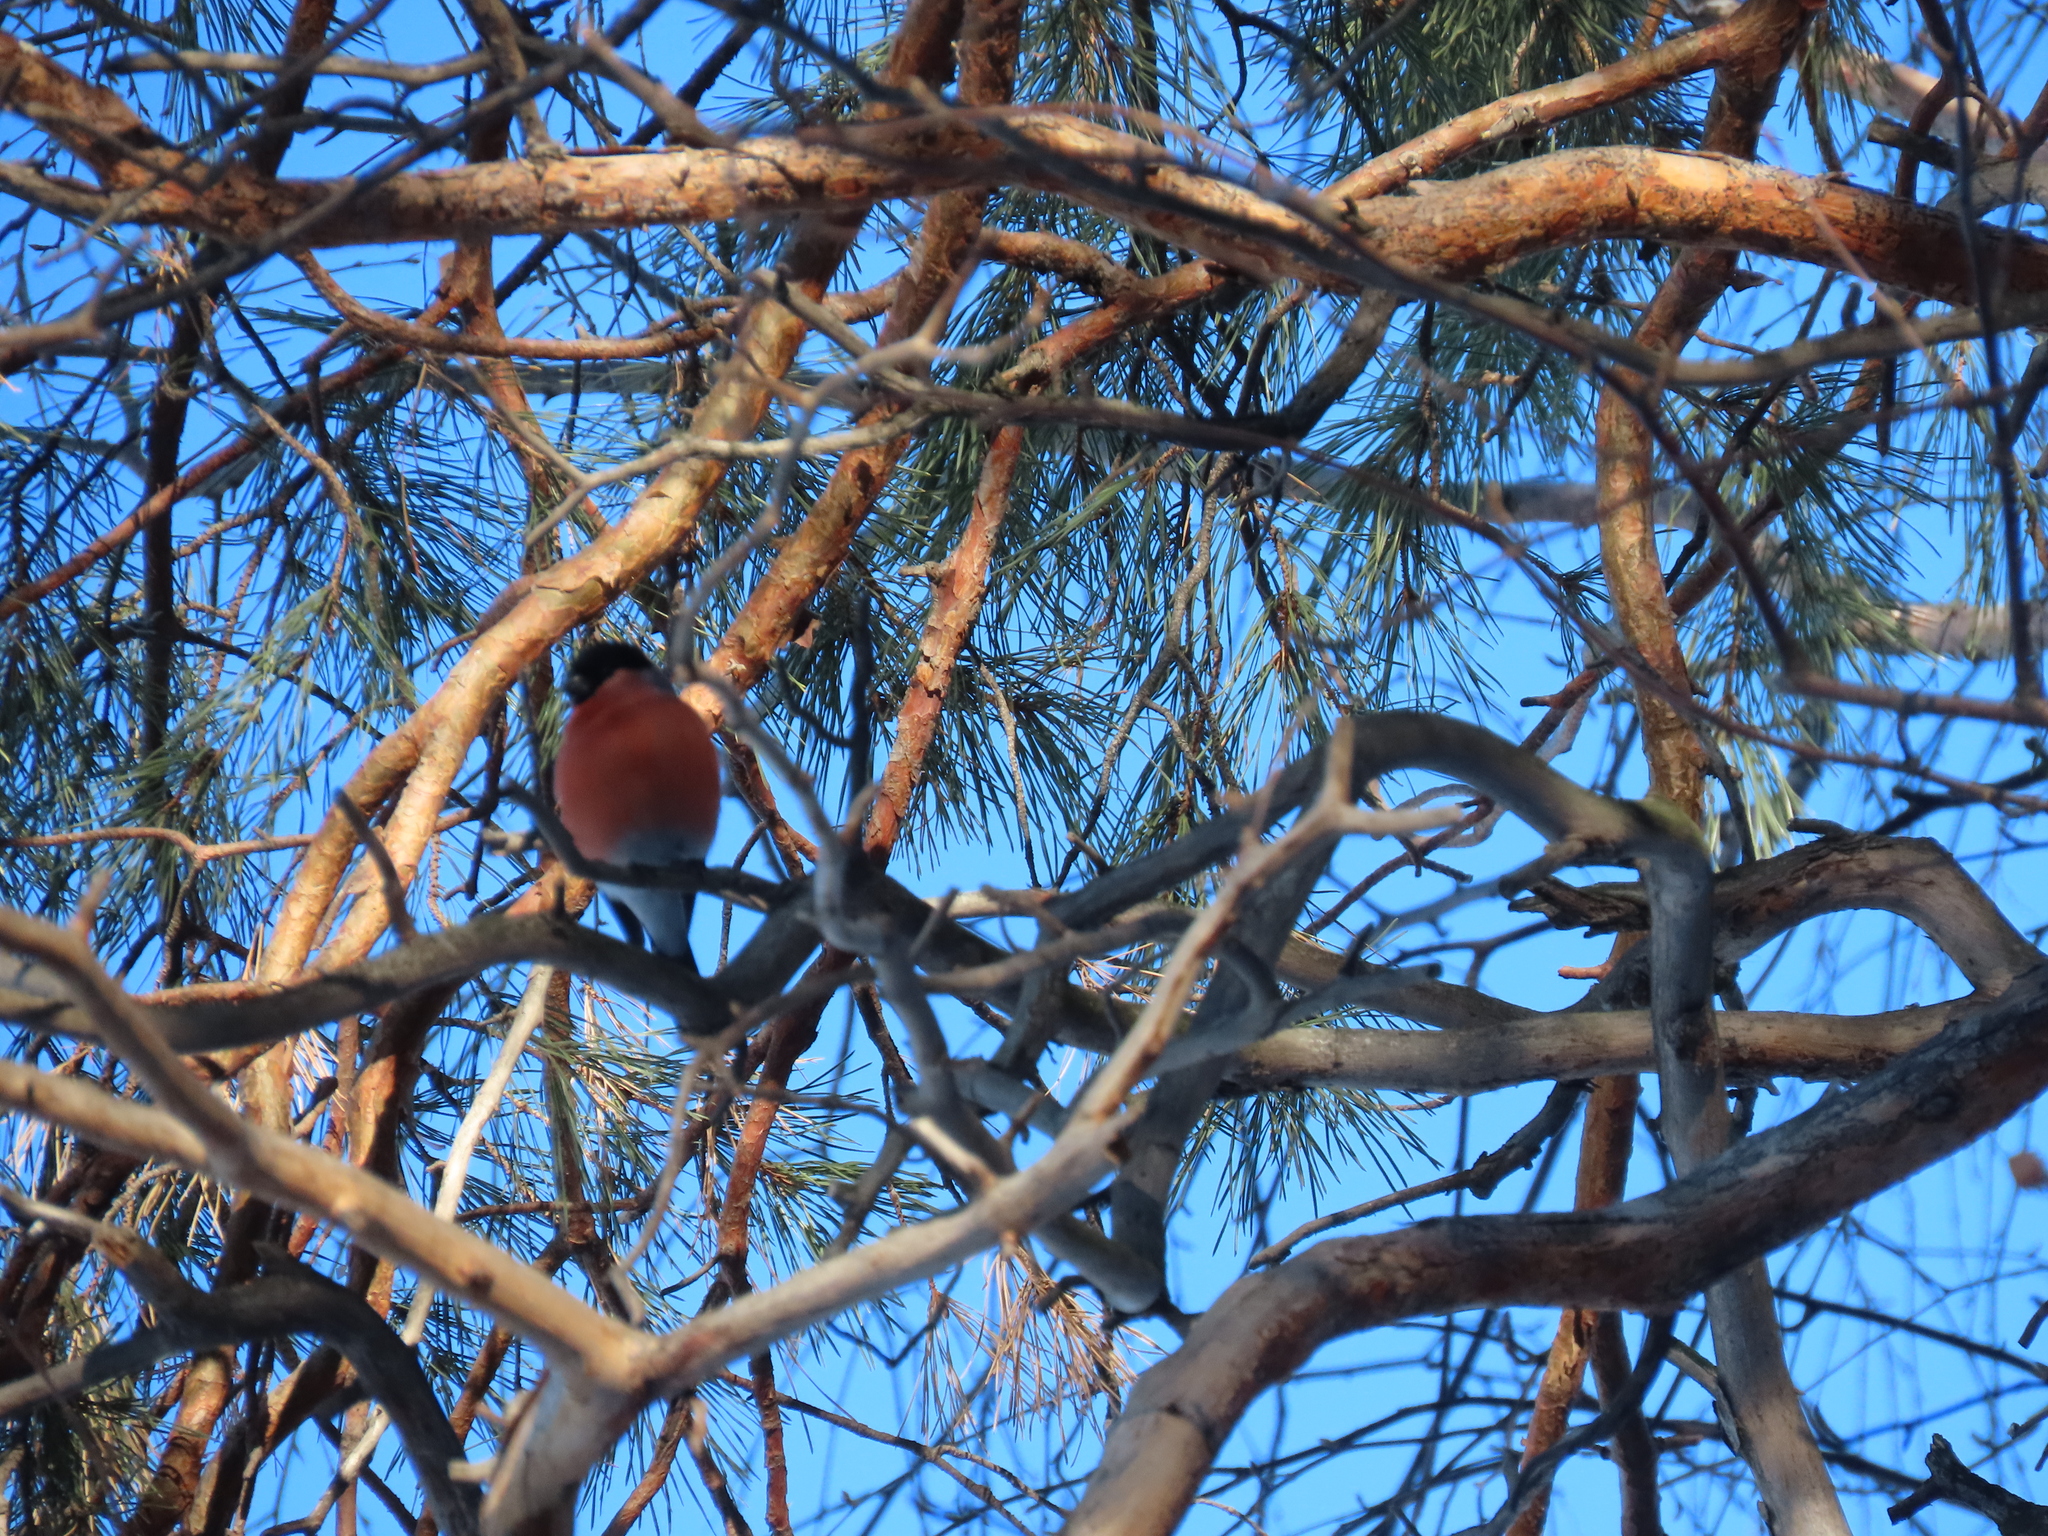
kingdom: Animalia
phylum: Chordata
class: Aves
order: Passeriformes
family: Fringillidae
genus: Pyrrhula
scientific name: Pyrrhula pyrrhula
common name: Eurasian bullfinch
